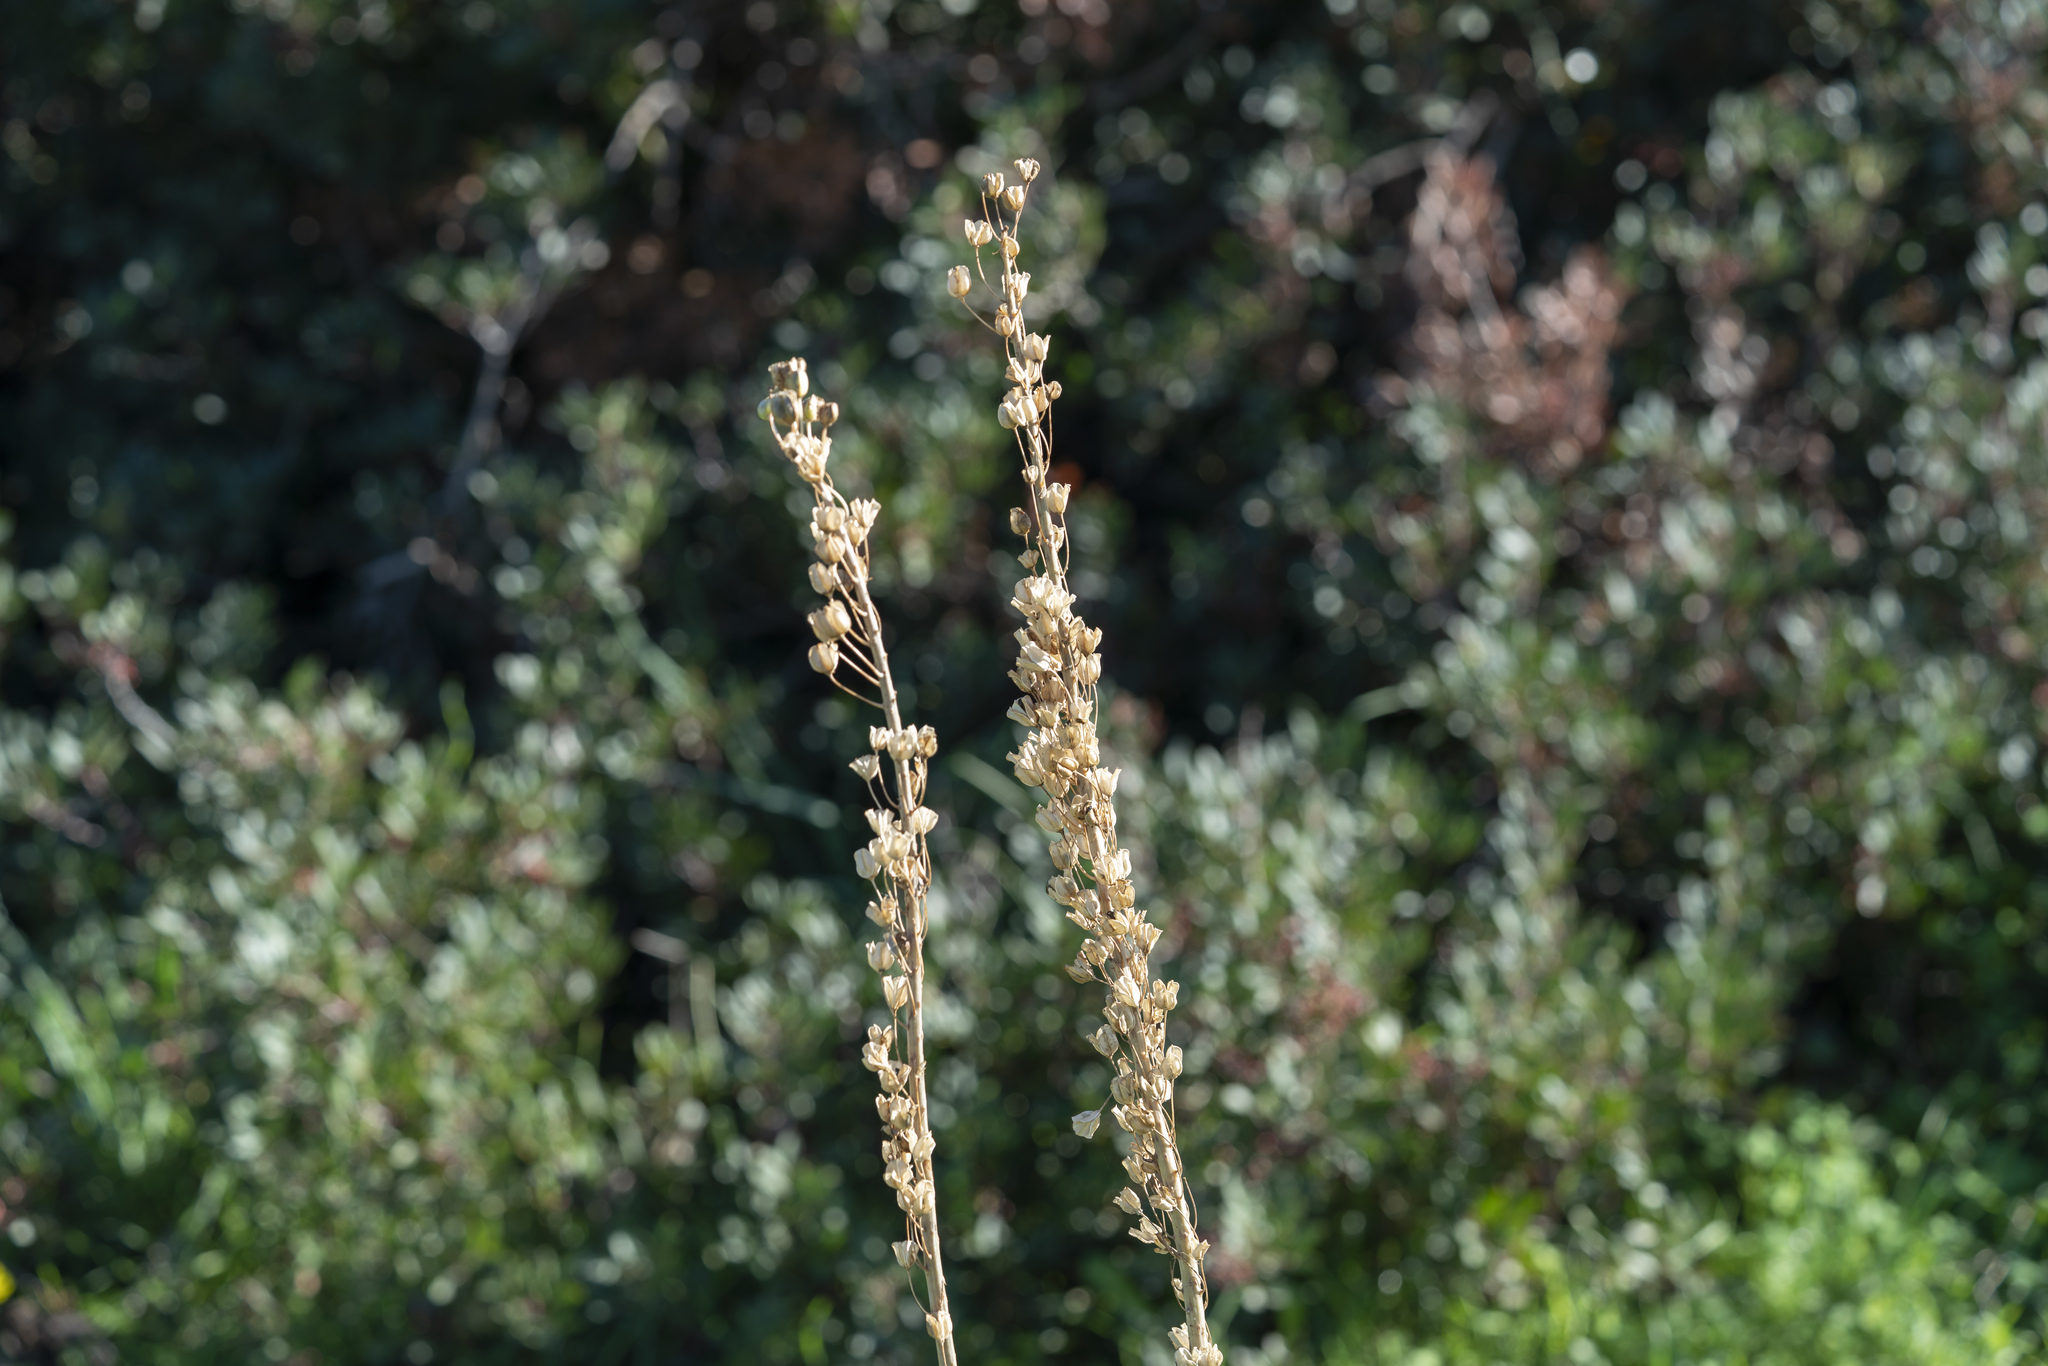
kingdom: Plantae
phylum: Tracheophyta
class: Liliopsida
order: Asparagales
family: Asparagaceae
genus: Drimia
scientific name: Drimia aphylla
